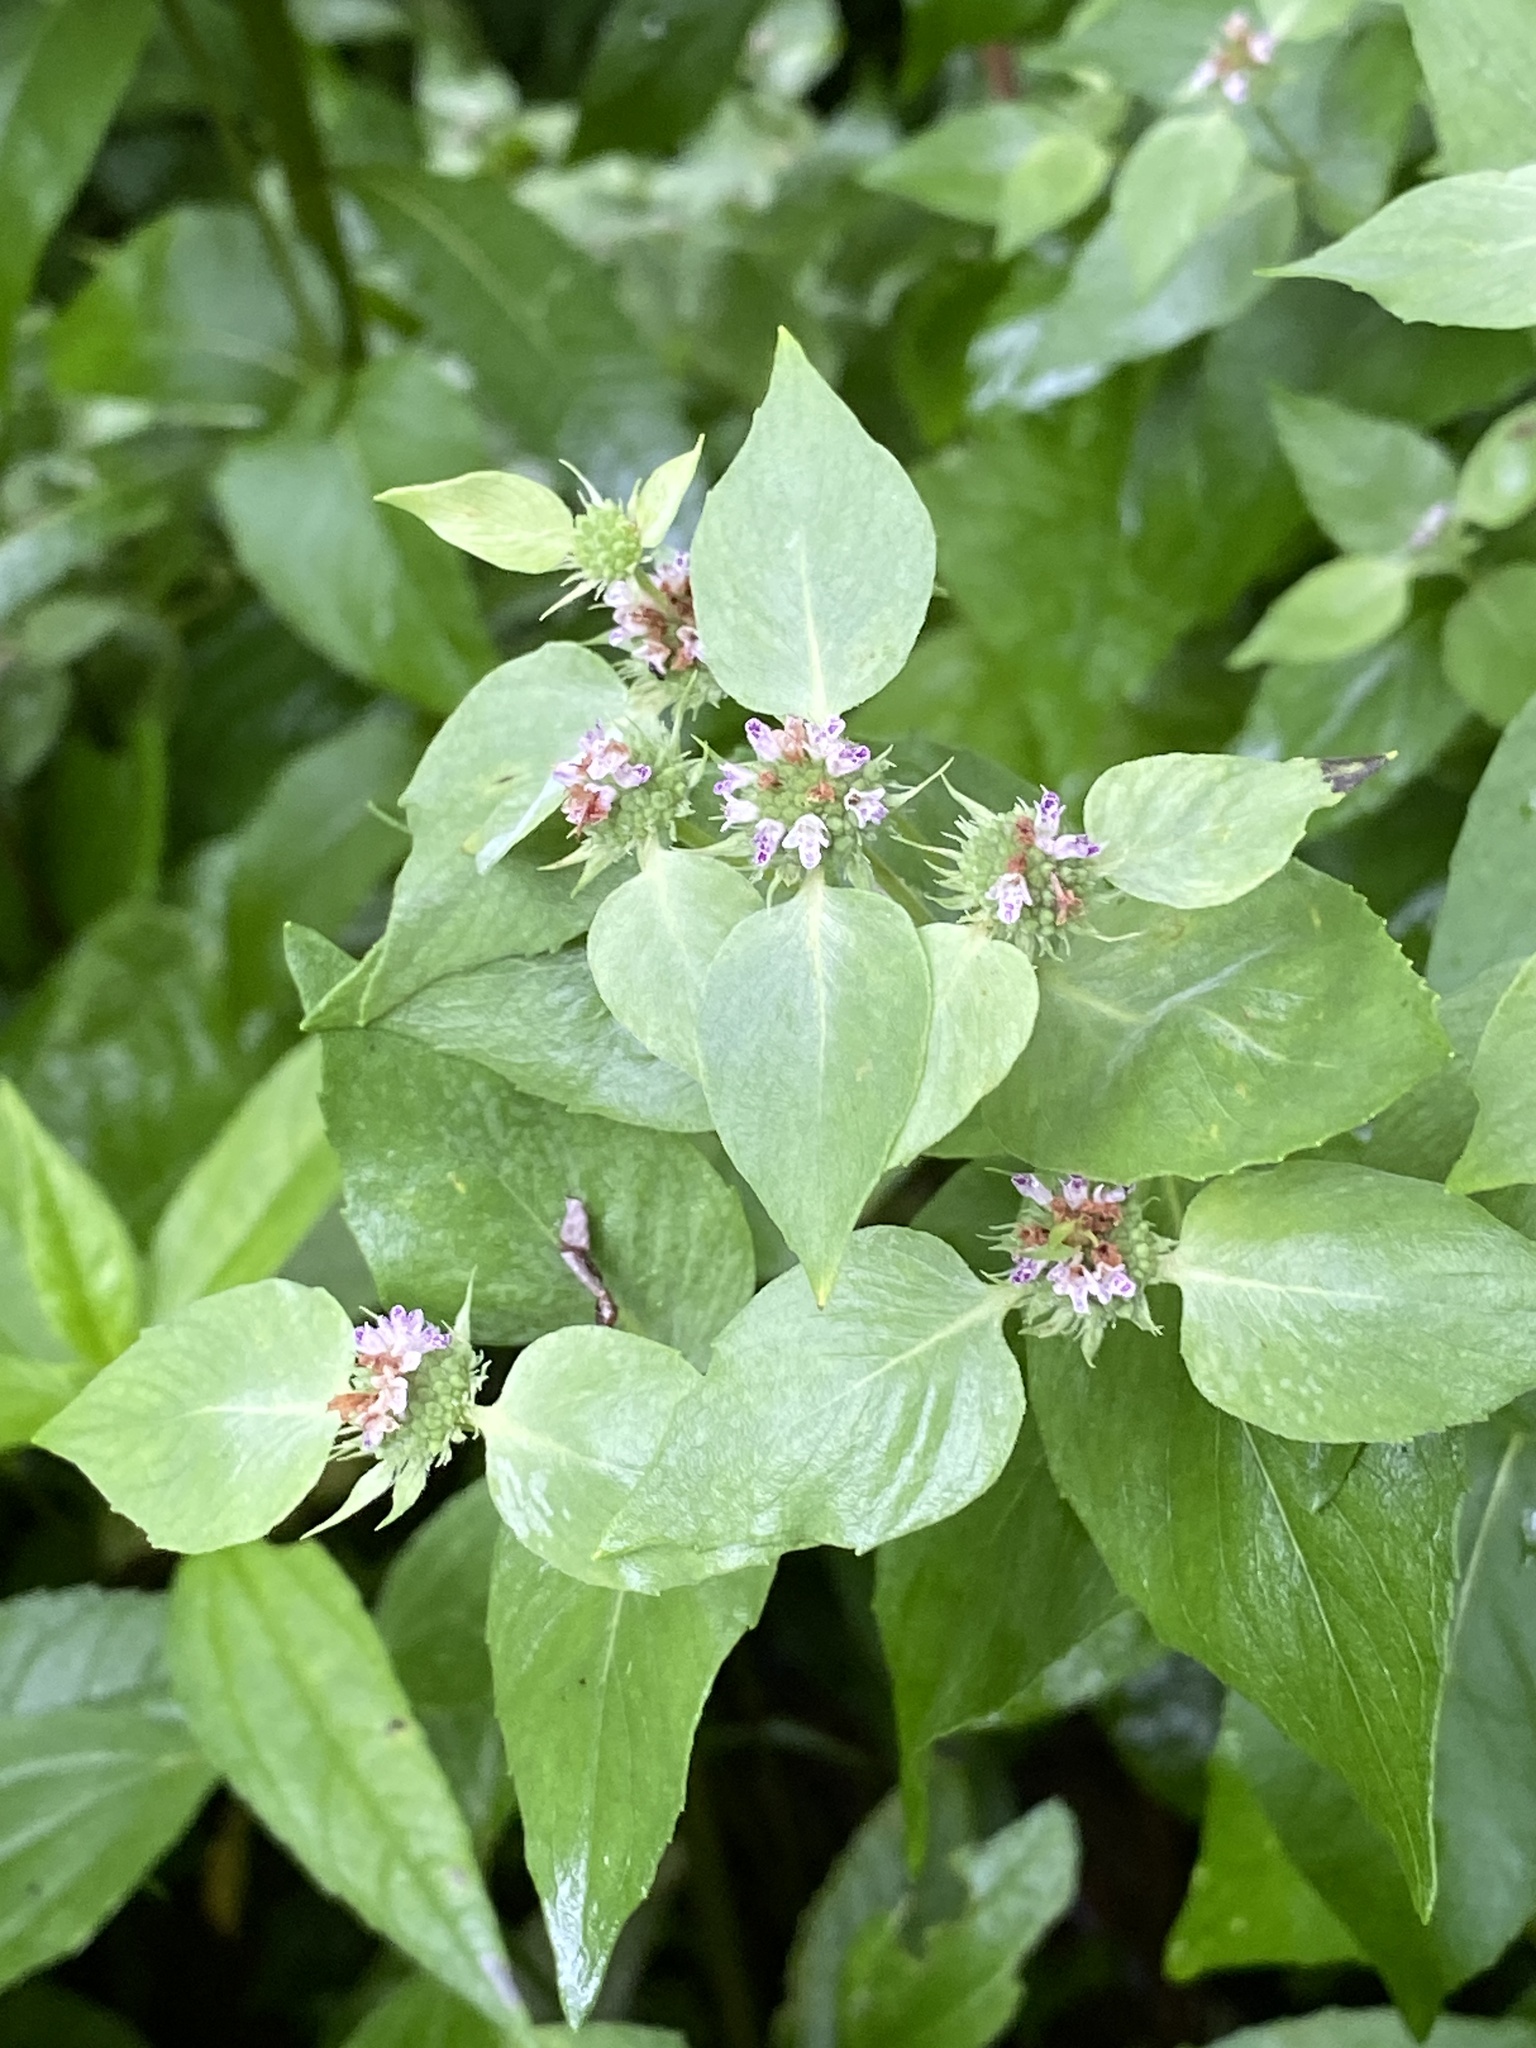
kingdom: Plantae
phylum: Tracheophyta
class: Magnoliopsida
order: Lamiales
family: Lamiaceae
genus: Pycnanthemum
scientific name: Pycnanthemum muticum
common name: Blunt mountain-mint
